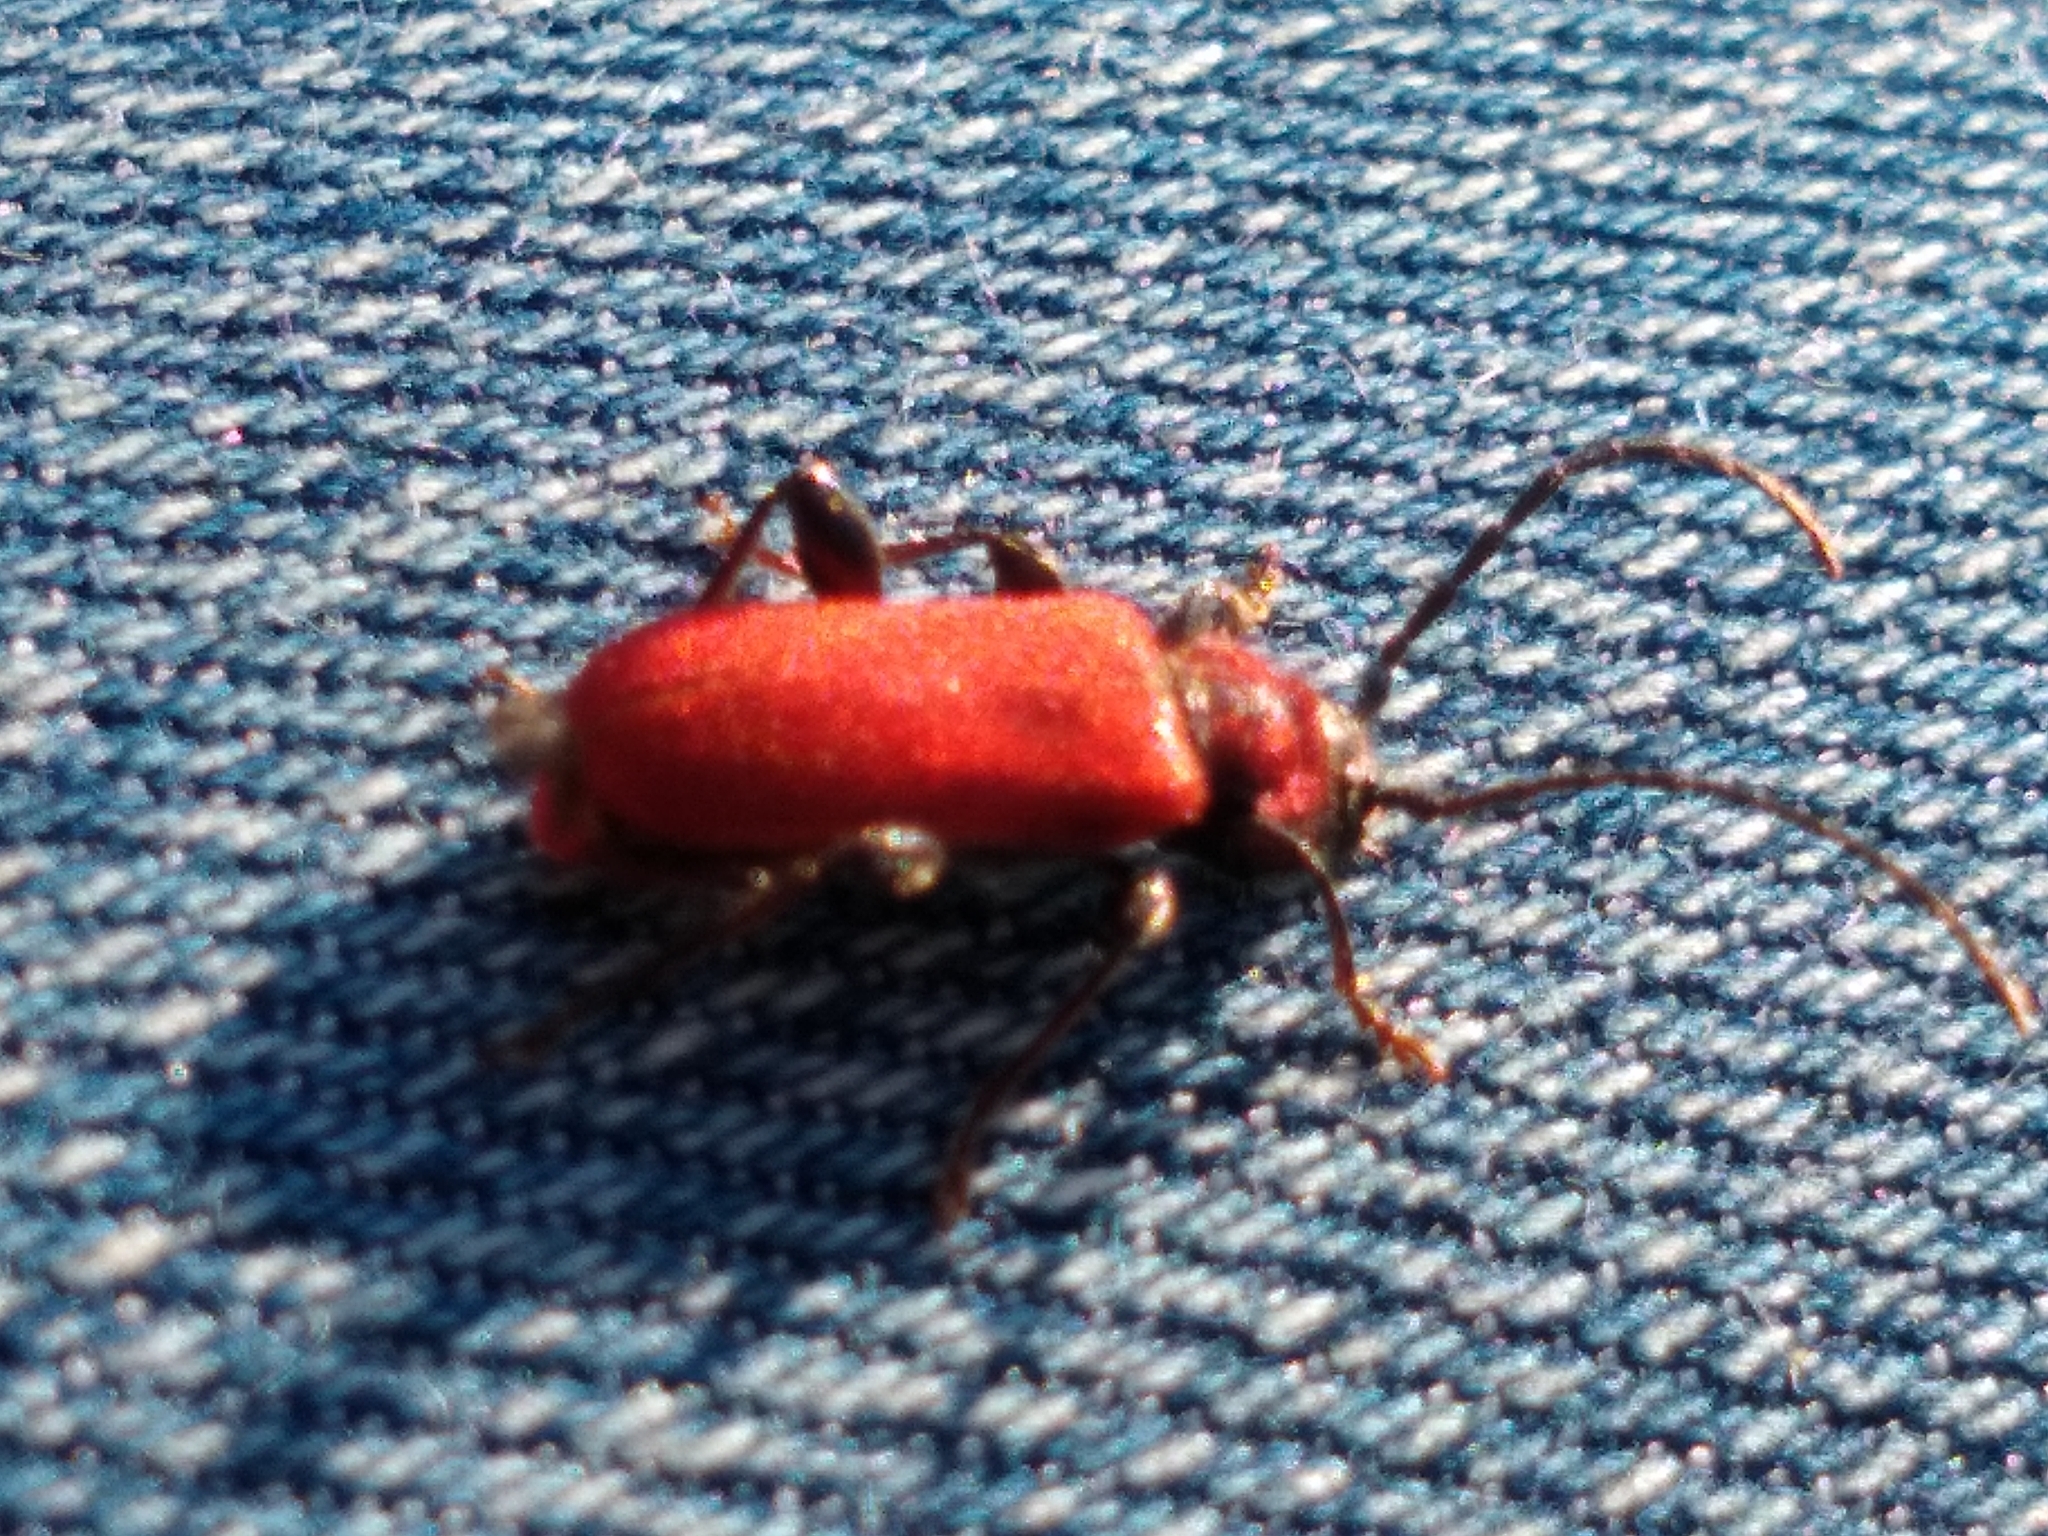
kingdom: Animalia
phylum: Arthropoda
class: Insecta
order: Coleoptera
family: Cerambycidae
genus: Pyrrhidium
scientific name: Pyrrhidium sanguineum
